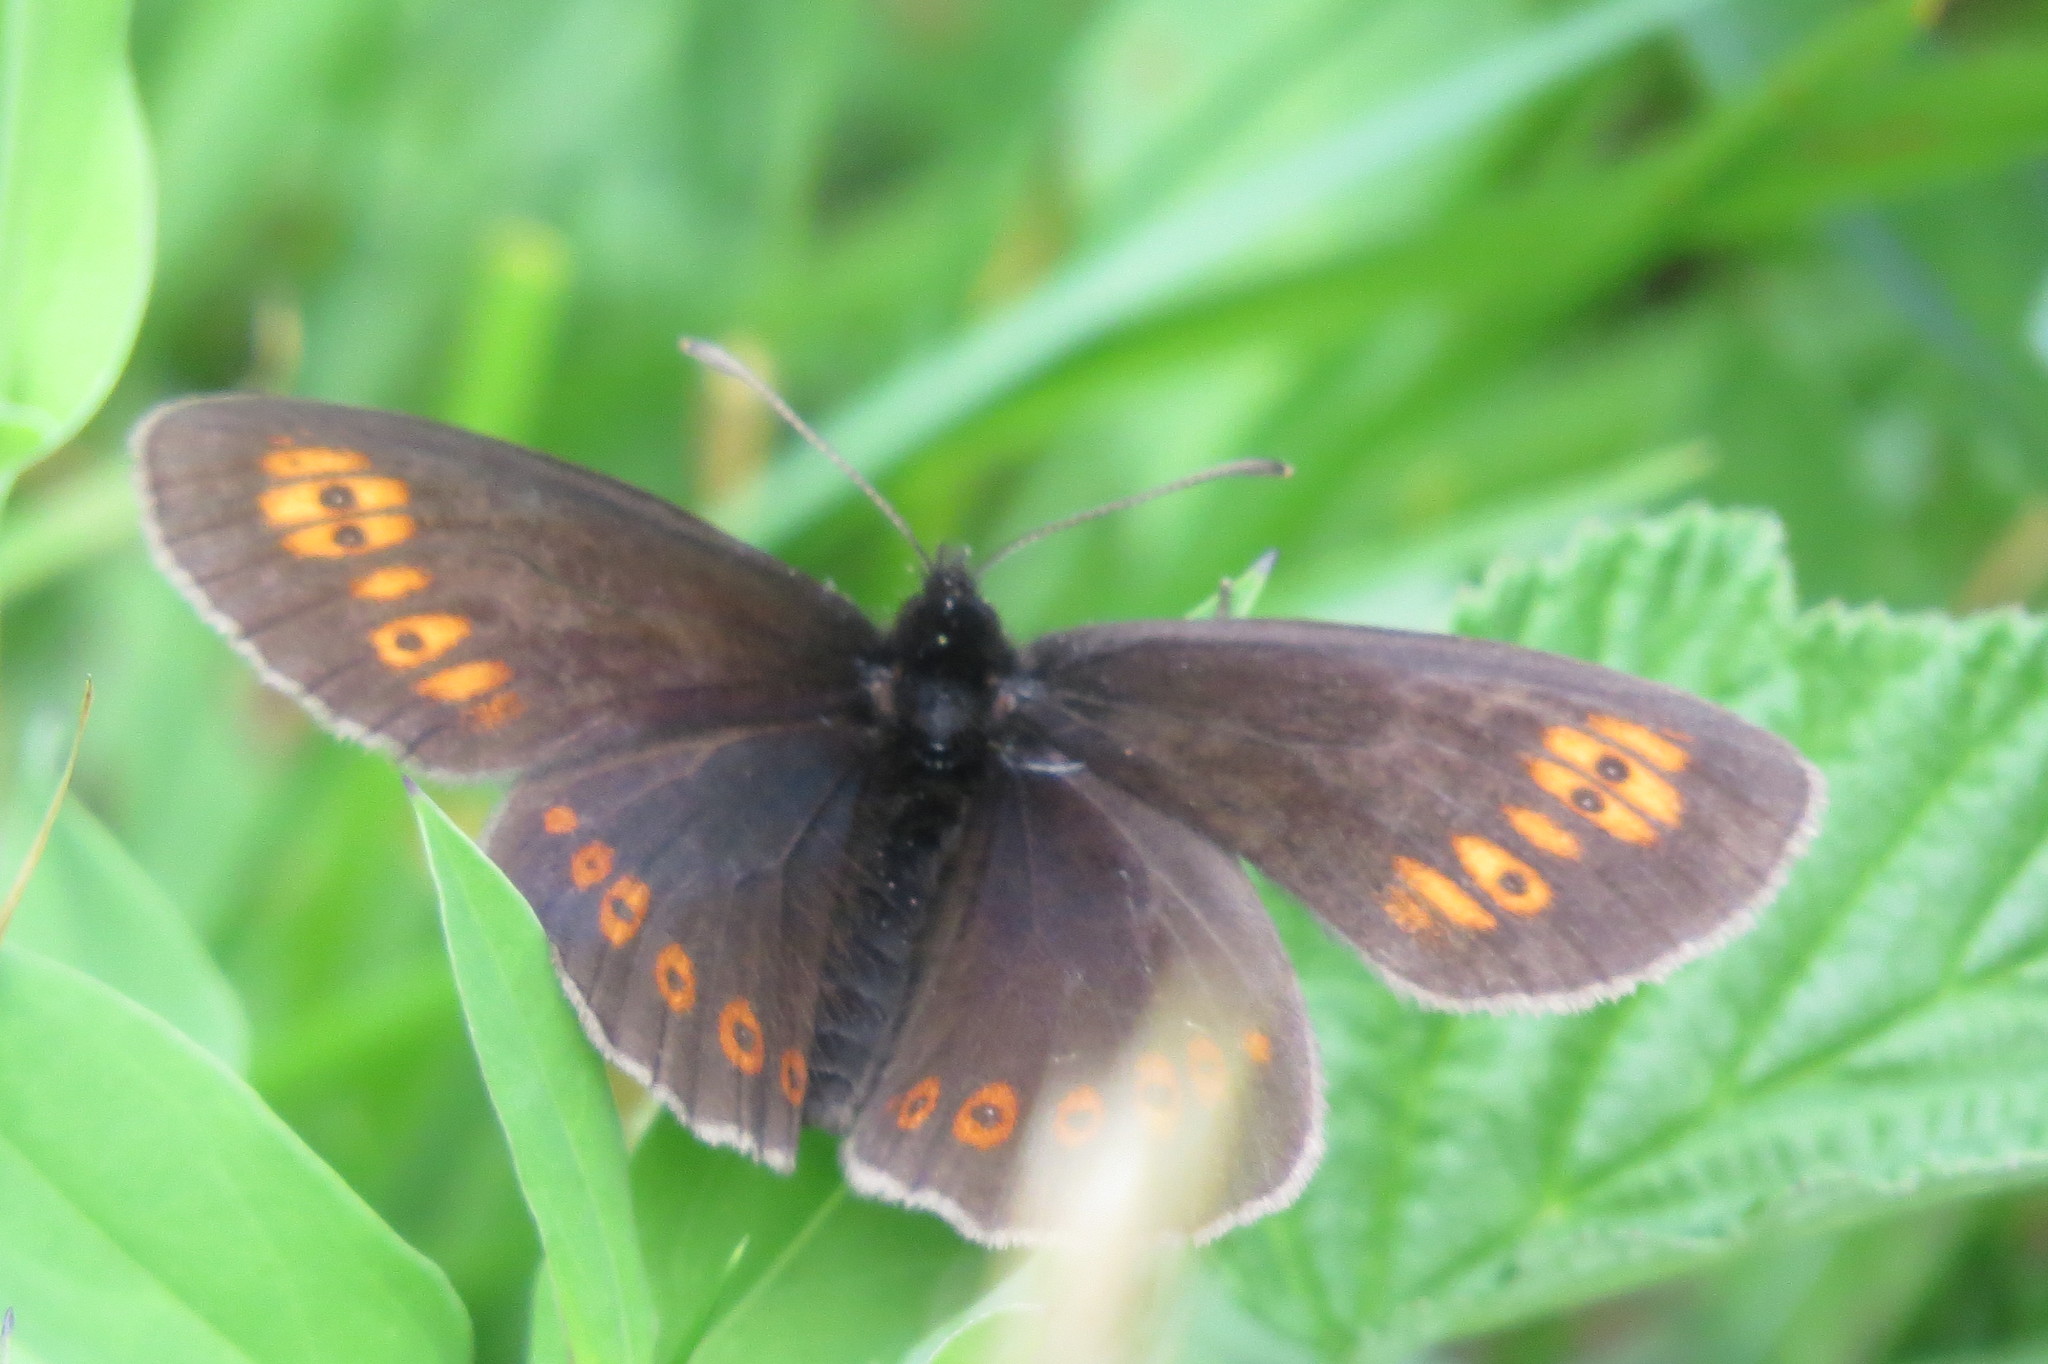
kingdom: Animalia
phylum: Arthropoda
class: Insecta
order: Lepidoptera
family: Nymphalidae
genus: Erebia
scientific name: Erebia alberganus
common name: Almond-eyed ringlet
